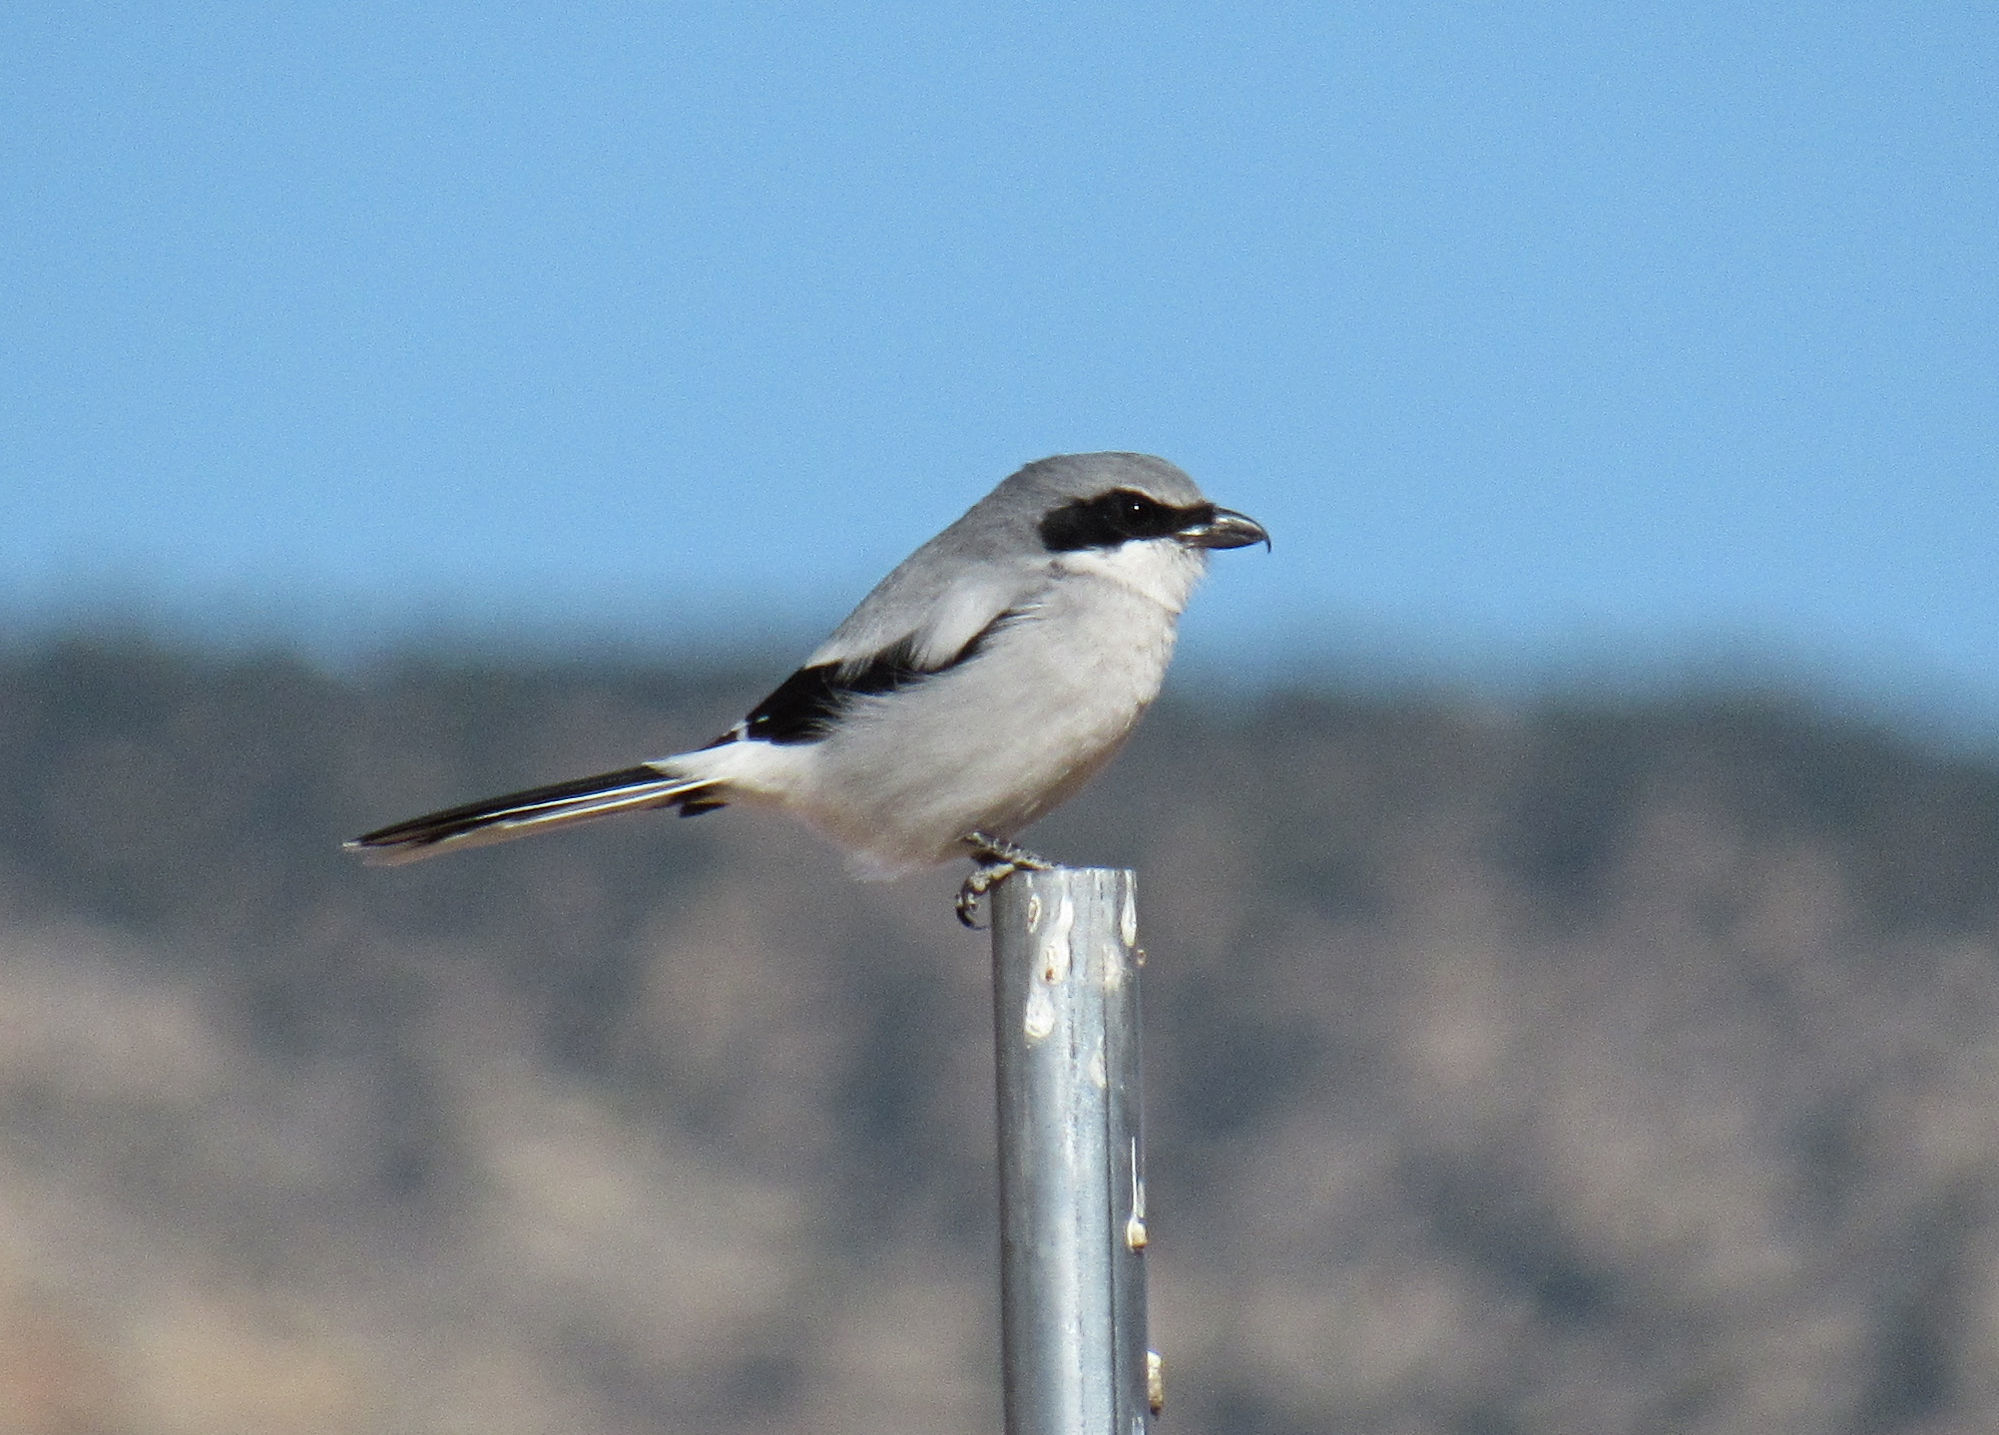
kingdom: Animalia
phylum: Chordata
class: Aves
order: Passeriformes
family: Laniidae
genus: Lanius
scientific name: Lanius ludovicianus
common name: Loggerhead shrike
